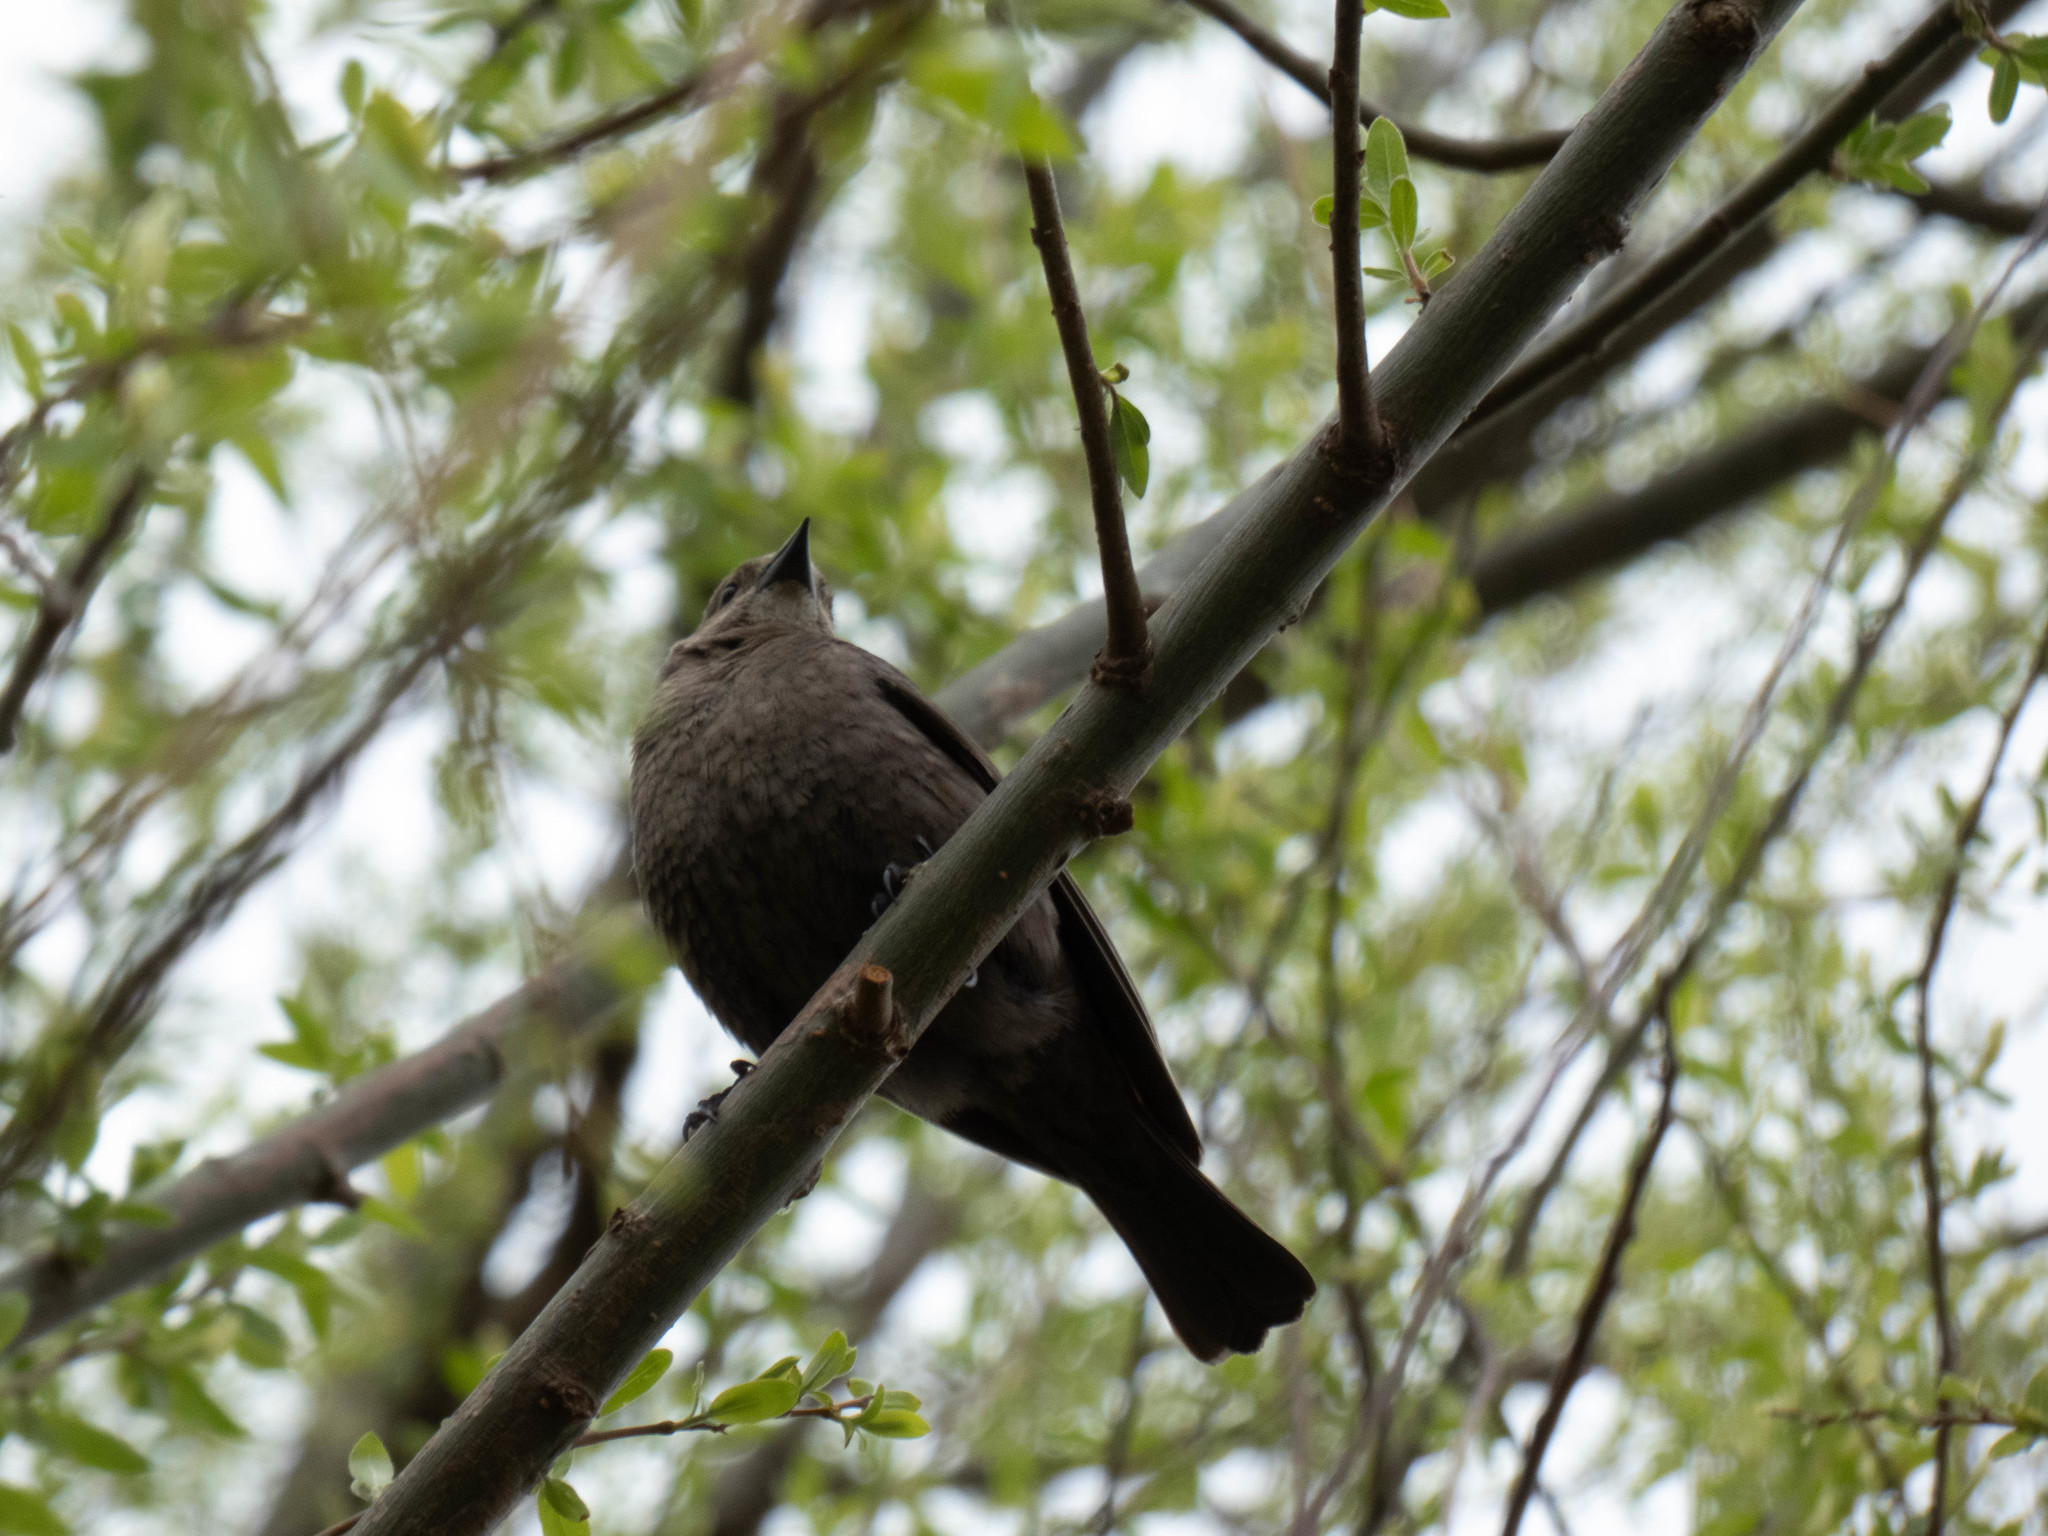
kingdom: Animalia
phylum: Chordata
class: Aves
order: Passeriformes
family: Icteridae
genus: Molothrus
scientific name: Molothrus ater
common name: Brown-headed cowbird
